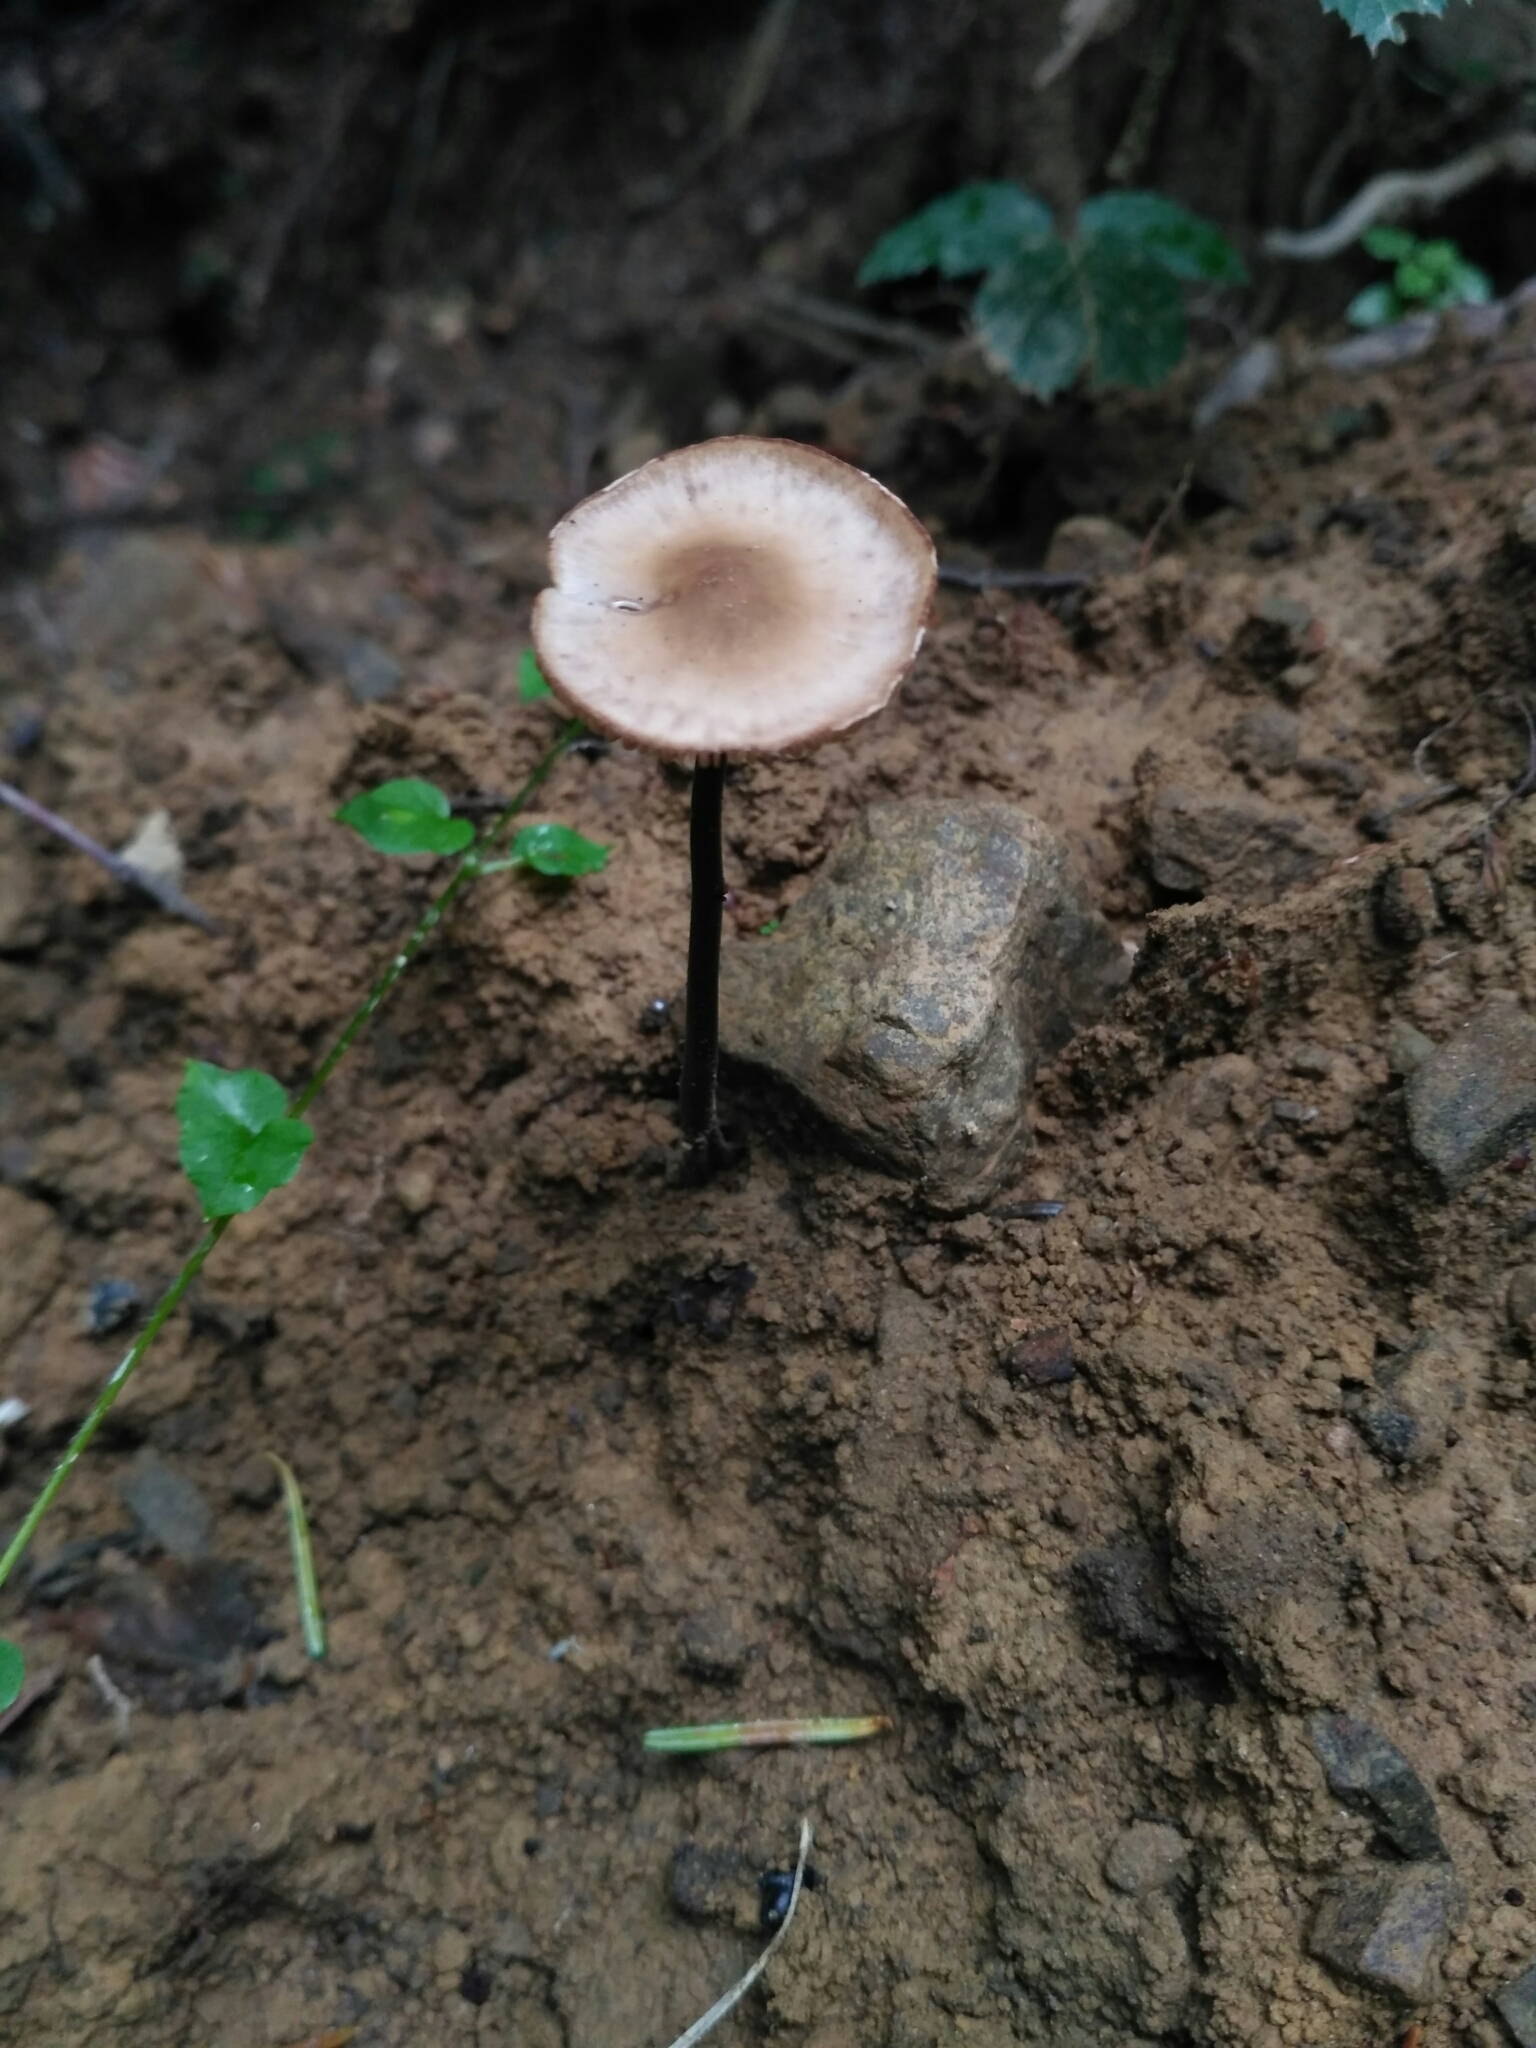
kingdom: Fungi
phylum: Basidiomycota
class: Agaricomycetes
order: Agaricales
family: Omphalotaceae
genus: Mycetinis
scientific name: Mycetinis alliaceus
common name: Garlic parachute
